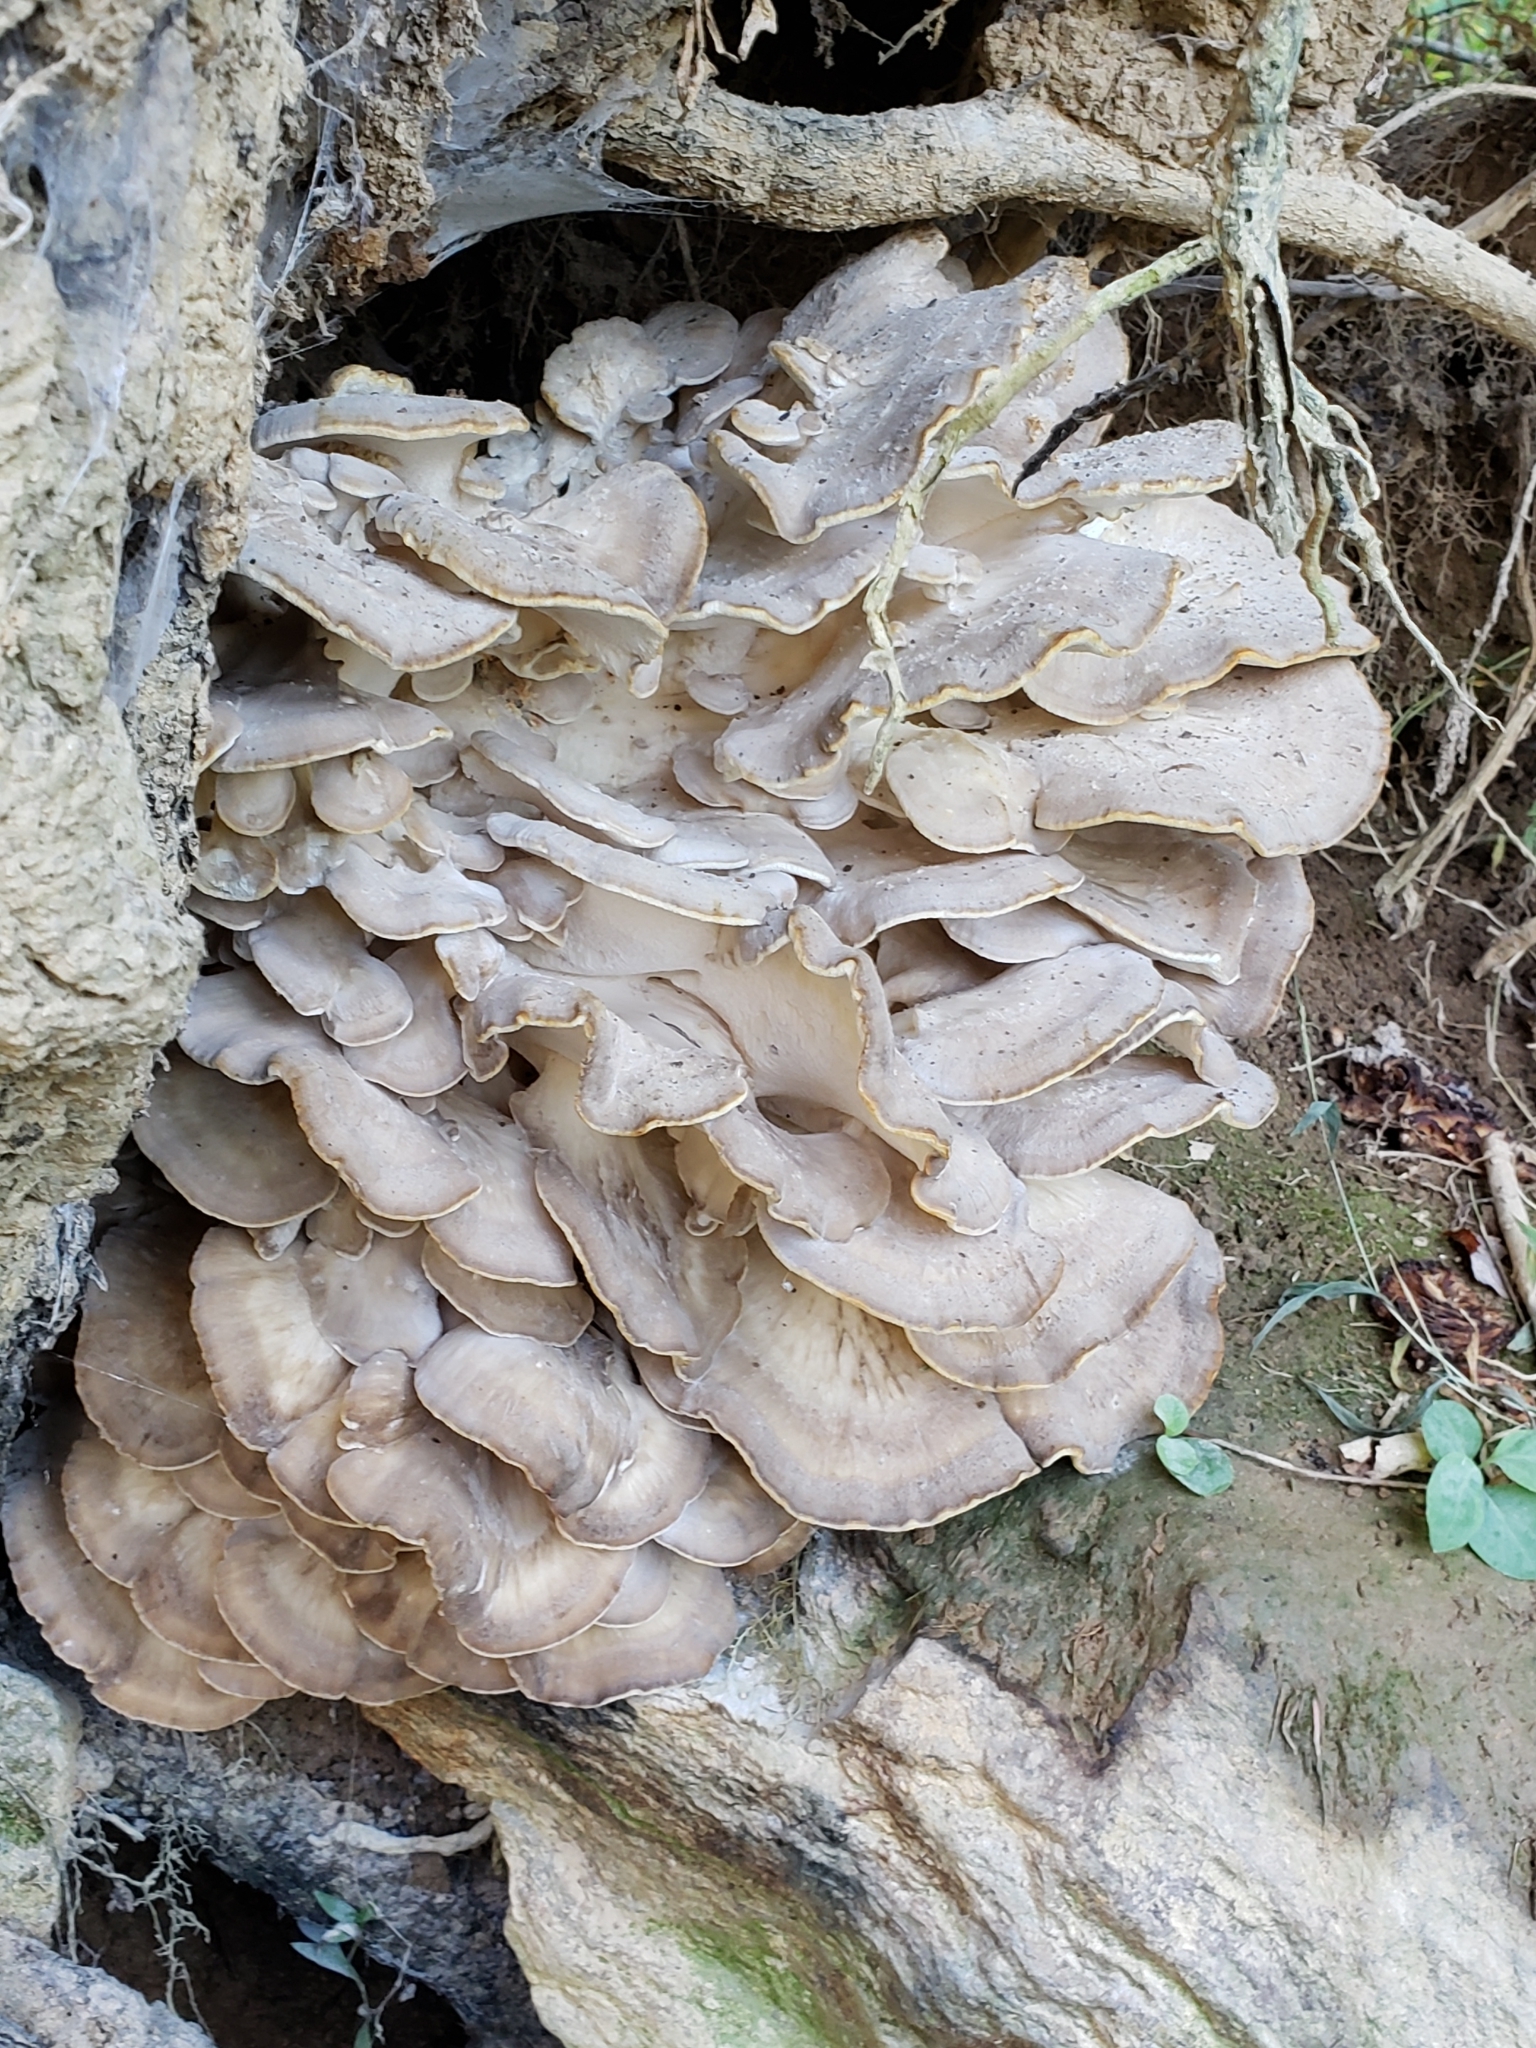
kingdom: Fungi
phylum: Basidiomycota
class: Agaricomycetes
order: Polyporales
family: Grifolaceae
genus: Grifola
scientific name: Grifola frondosa
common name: Hen of the woods
